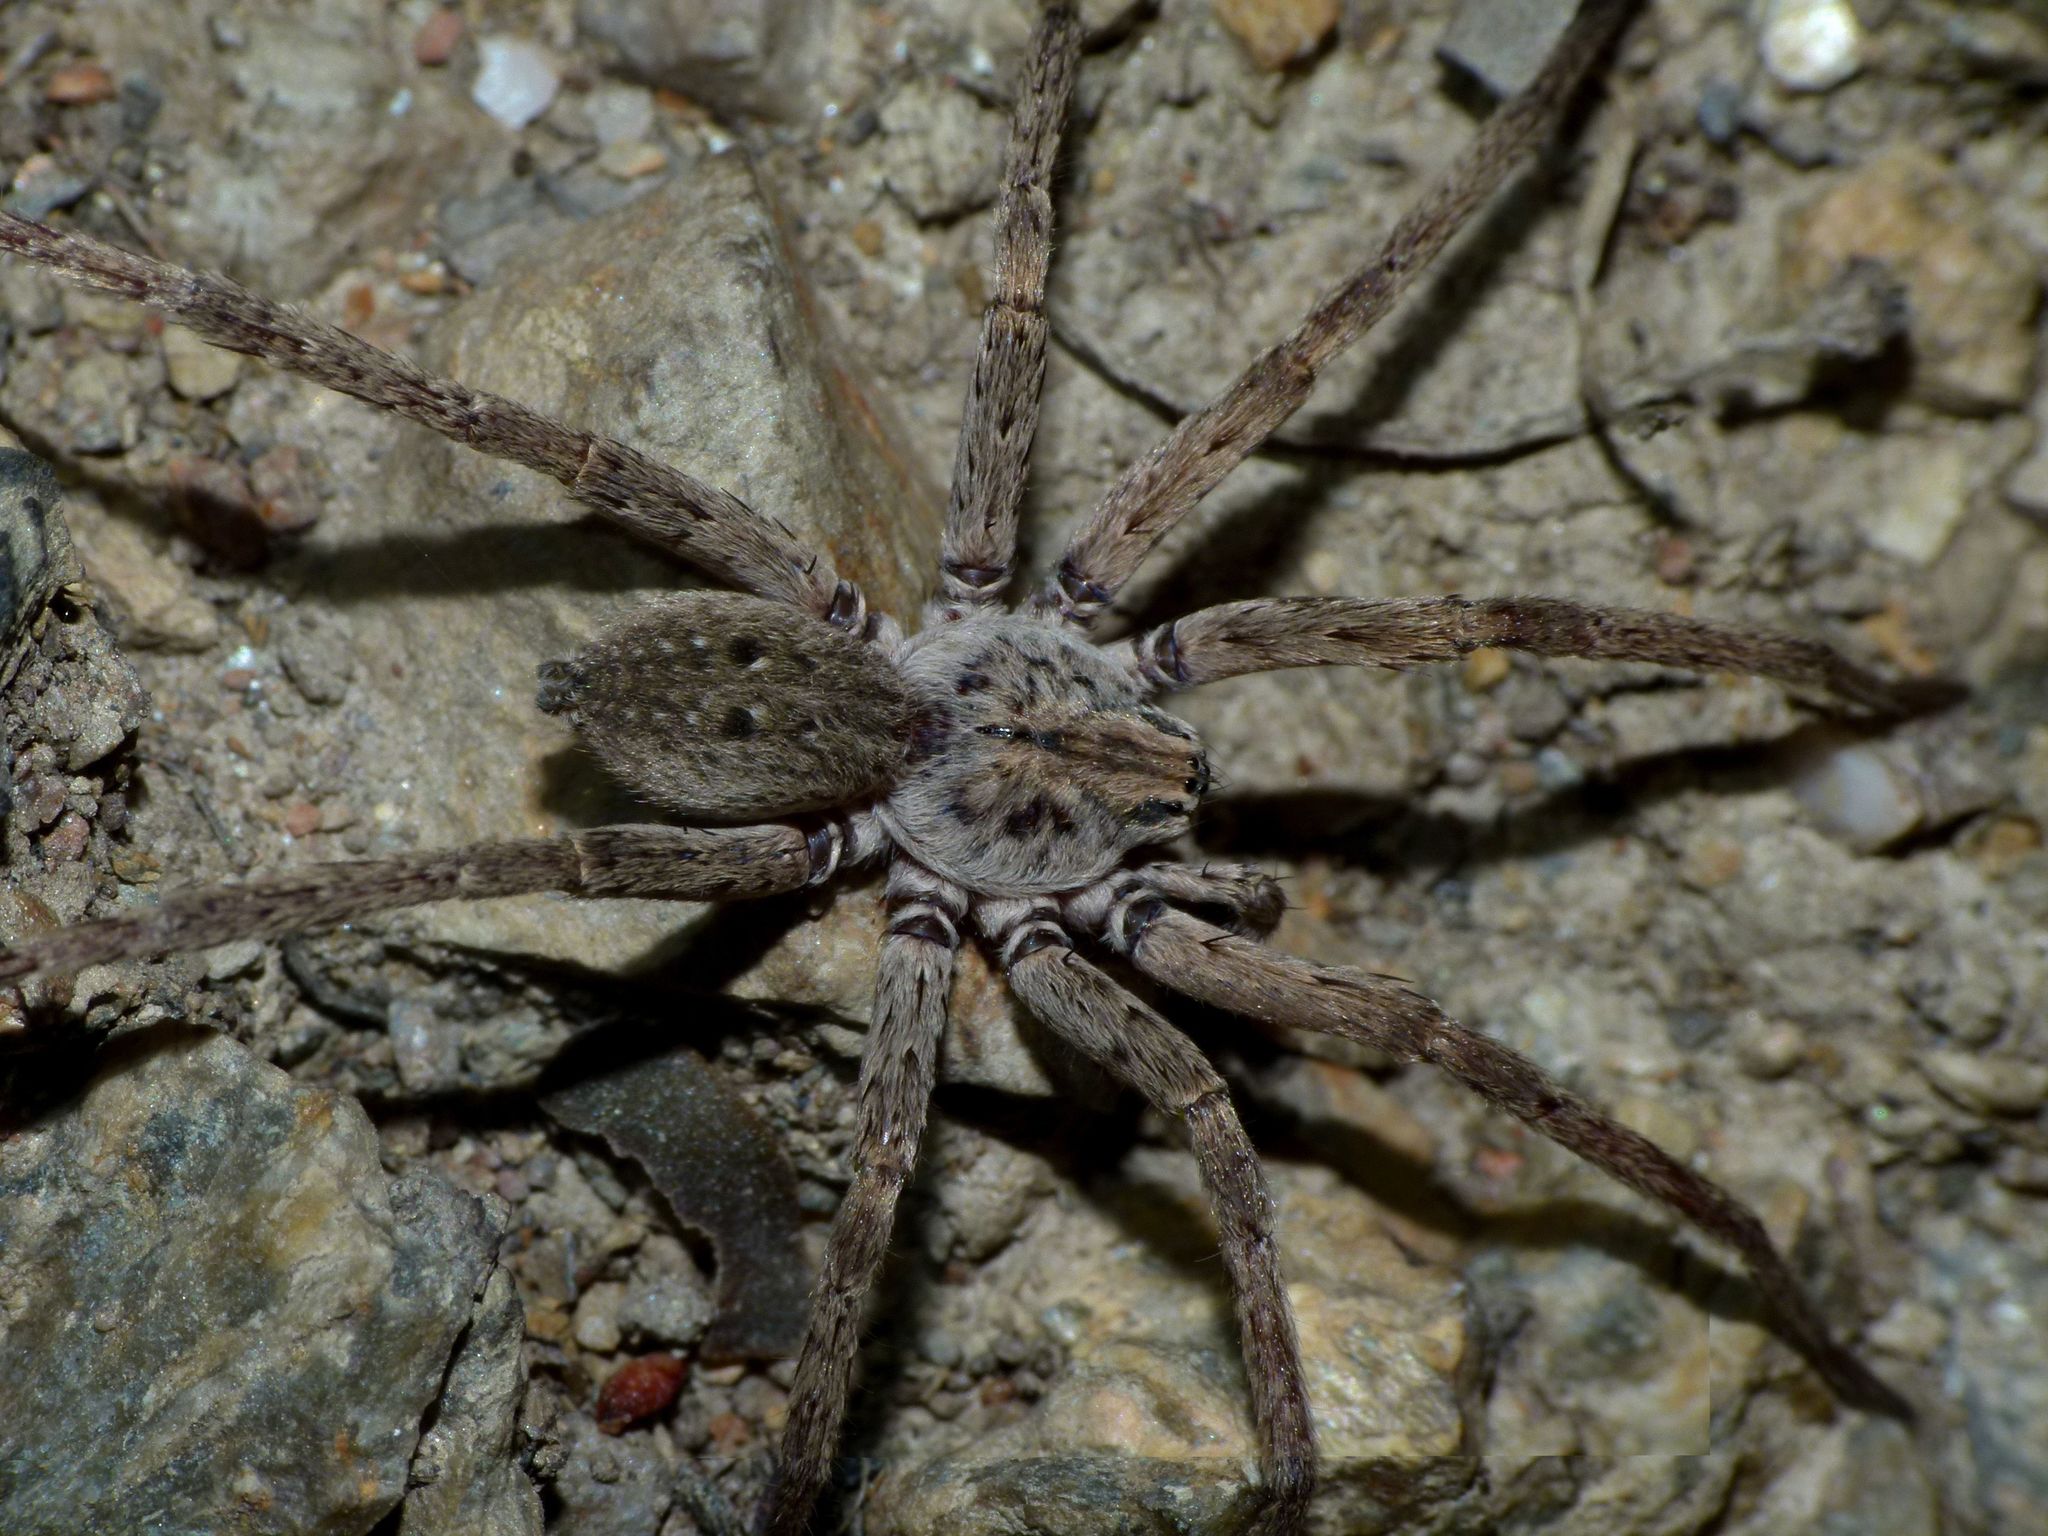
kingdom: Animalia
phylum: Arthropoda
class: Arachnida
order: Araneae
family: Miturgidae
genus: Mituliodon
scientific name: Mituliodon tarantulinus
